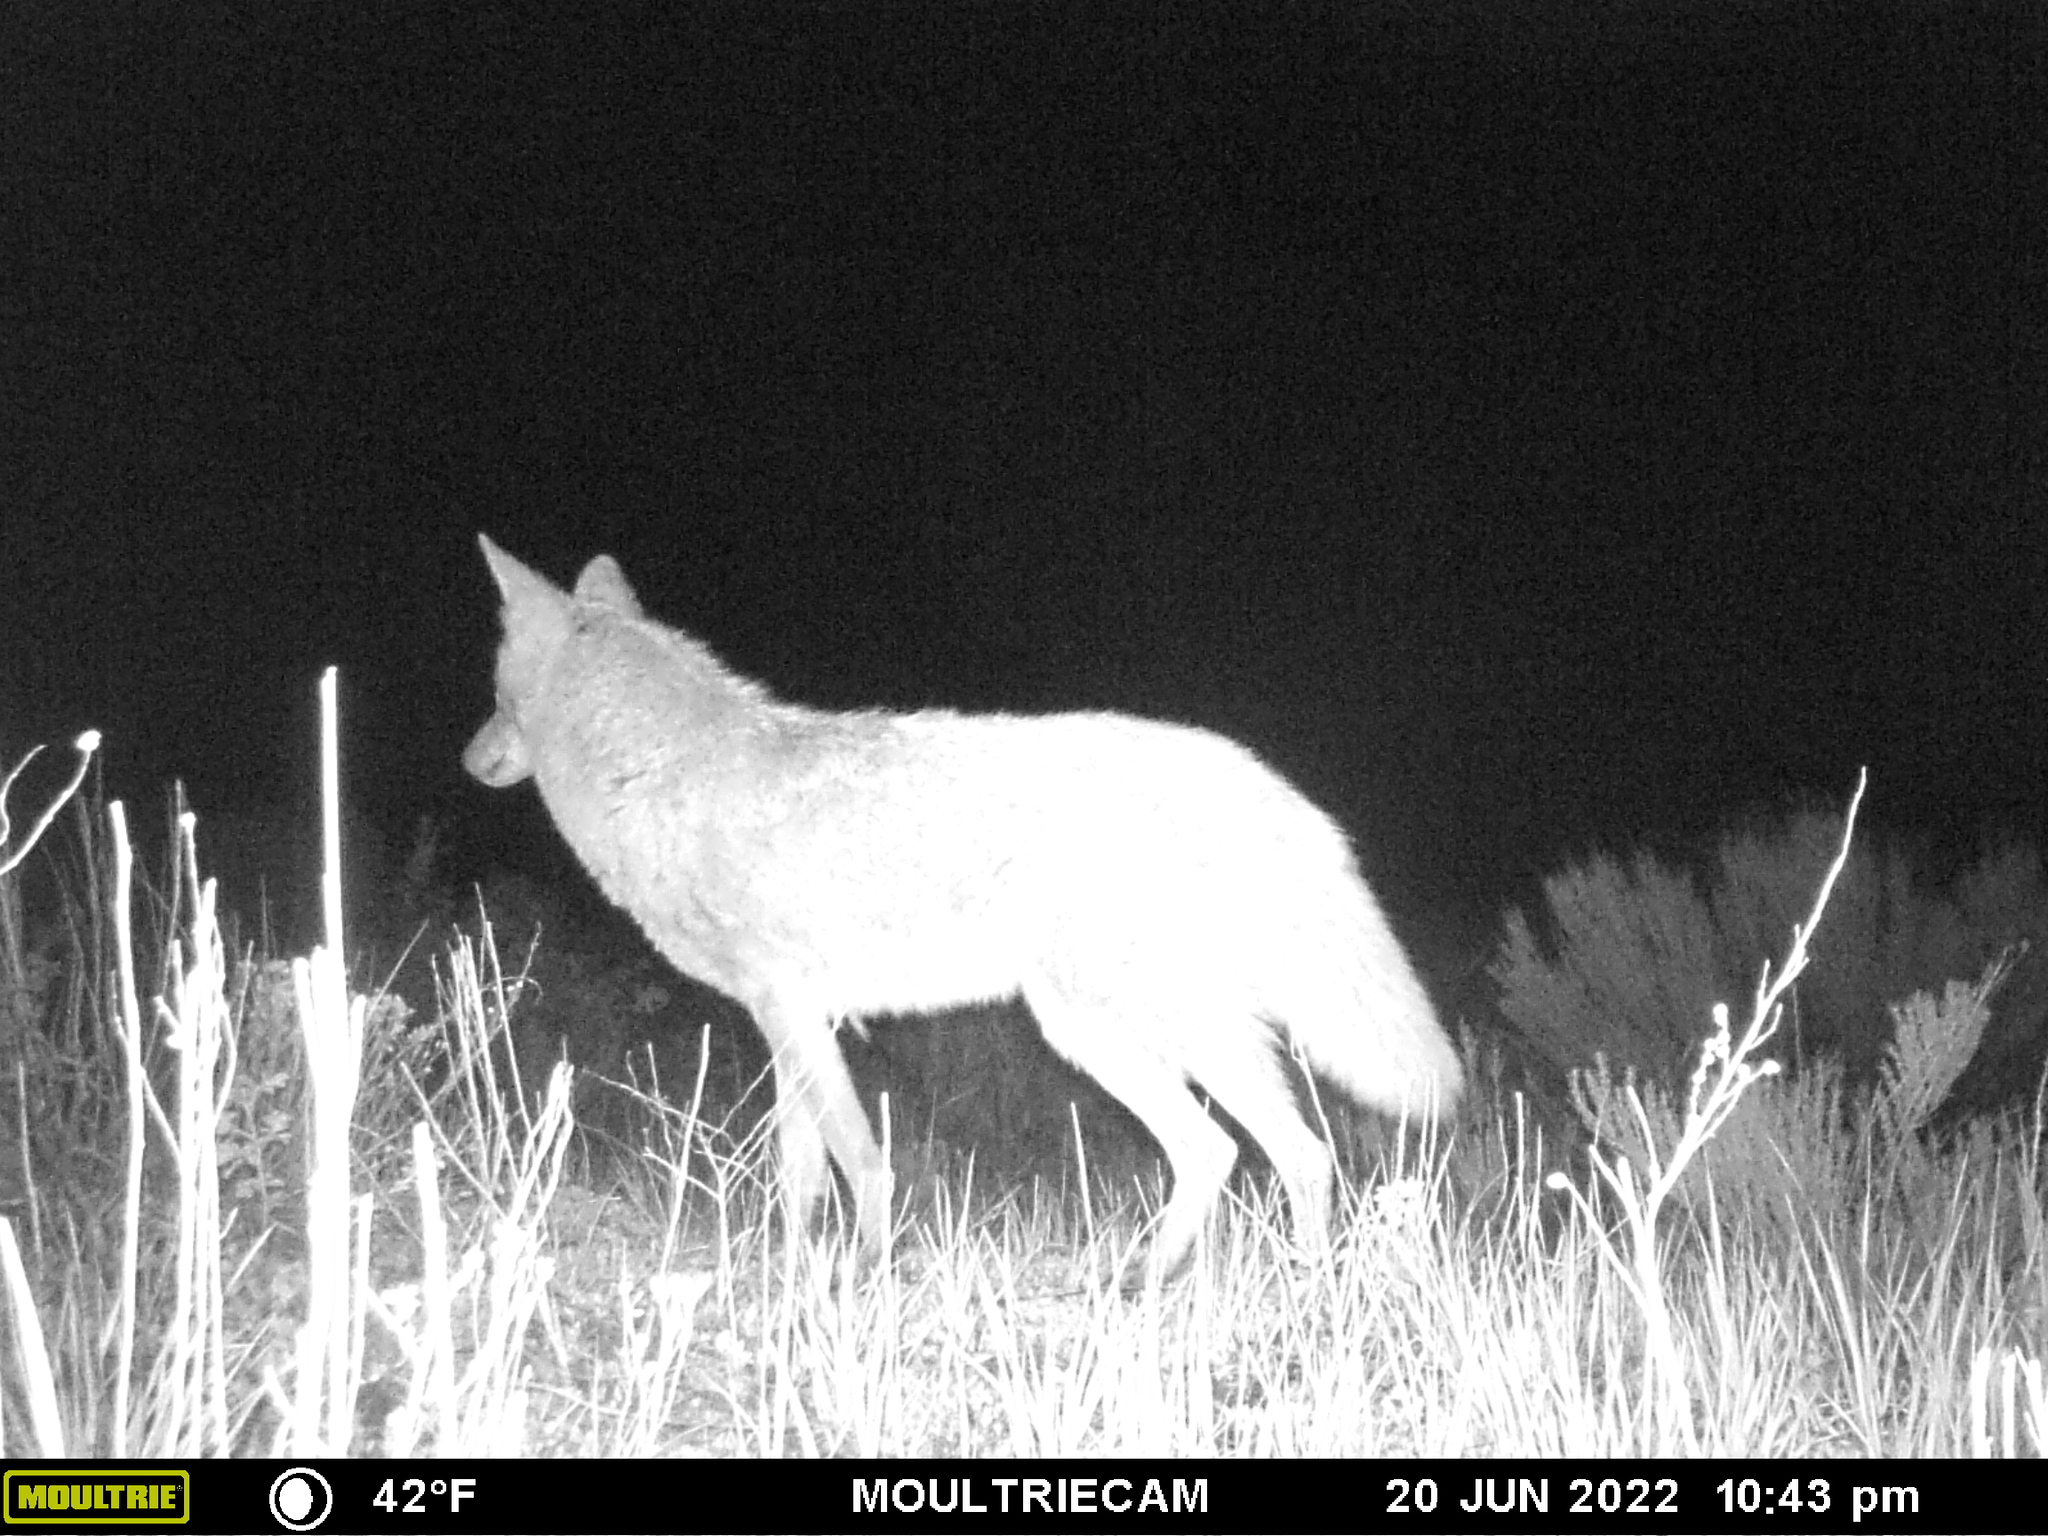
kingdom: Animalia
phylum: Chordata
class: Mammalia
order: Carnivora
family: Canidae
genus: Canis
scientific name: Canis latrans
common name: Coyote
